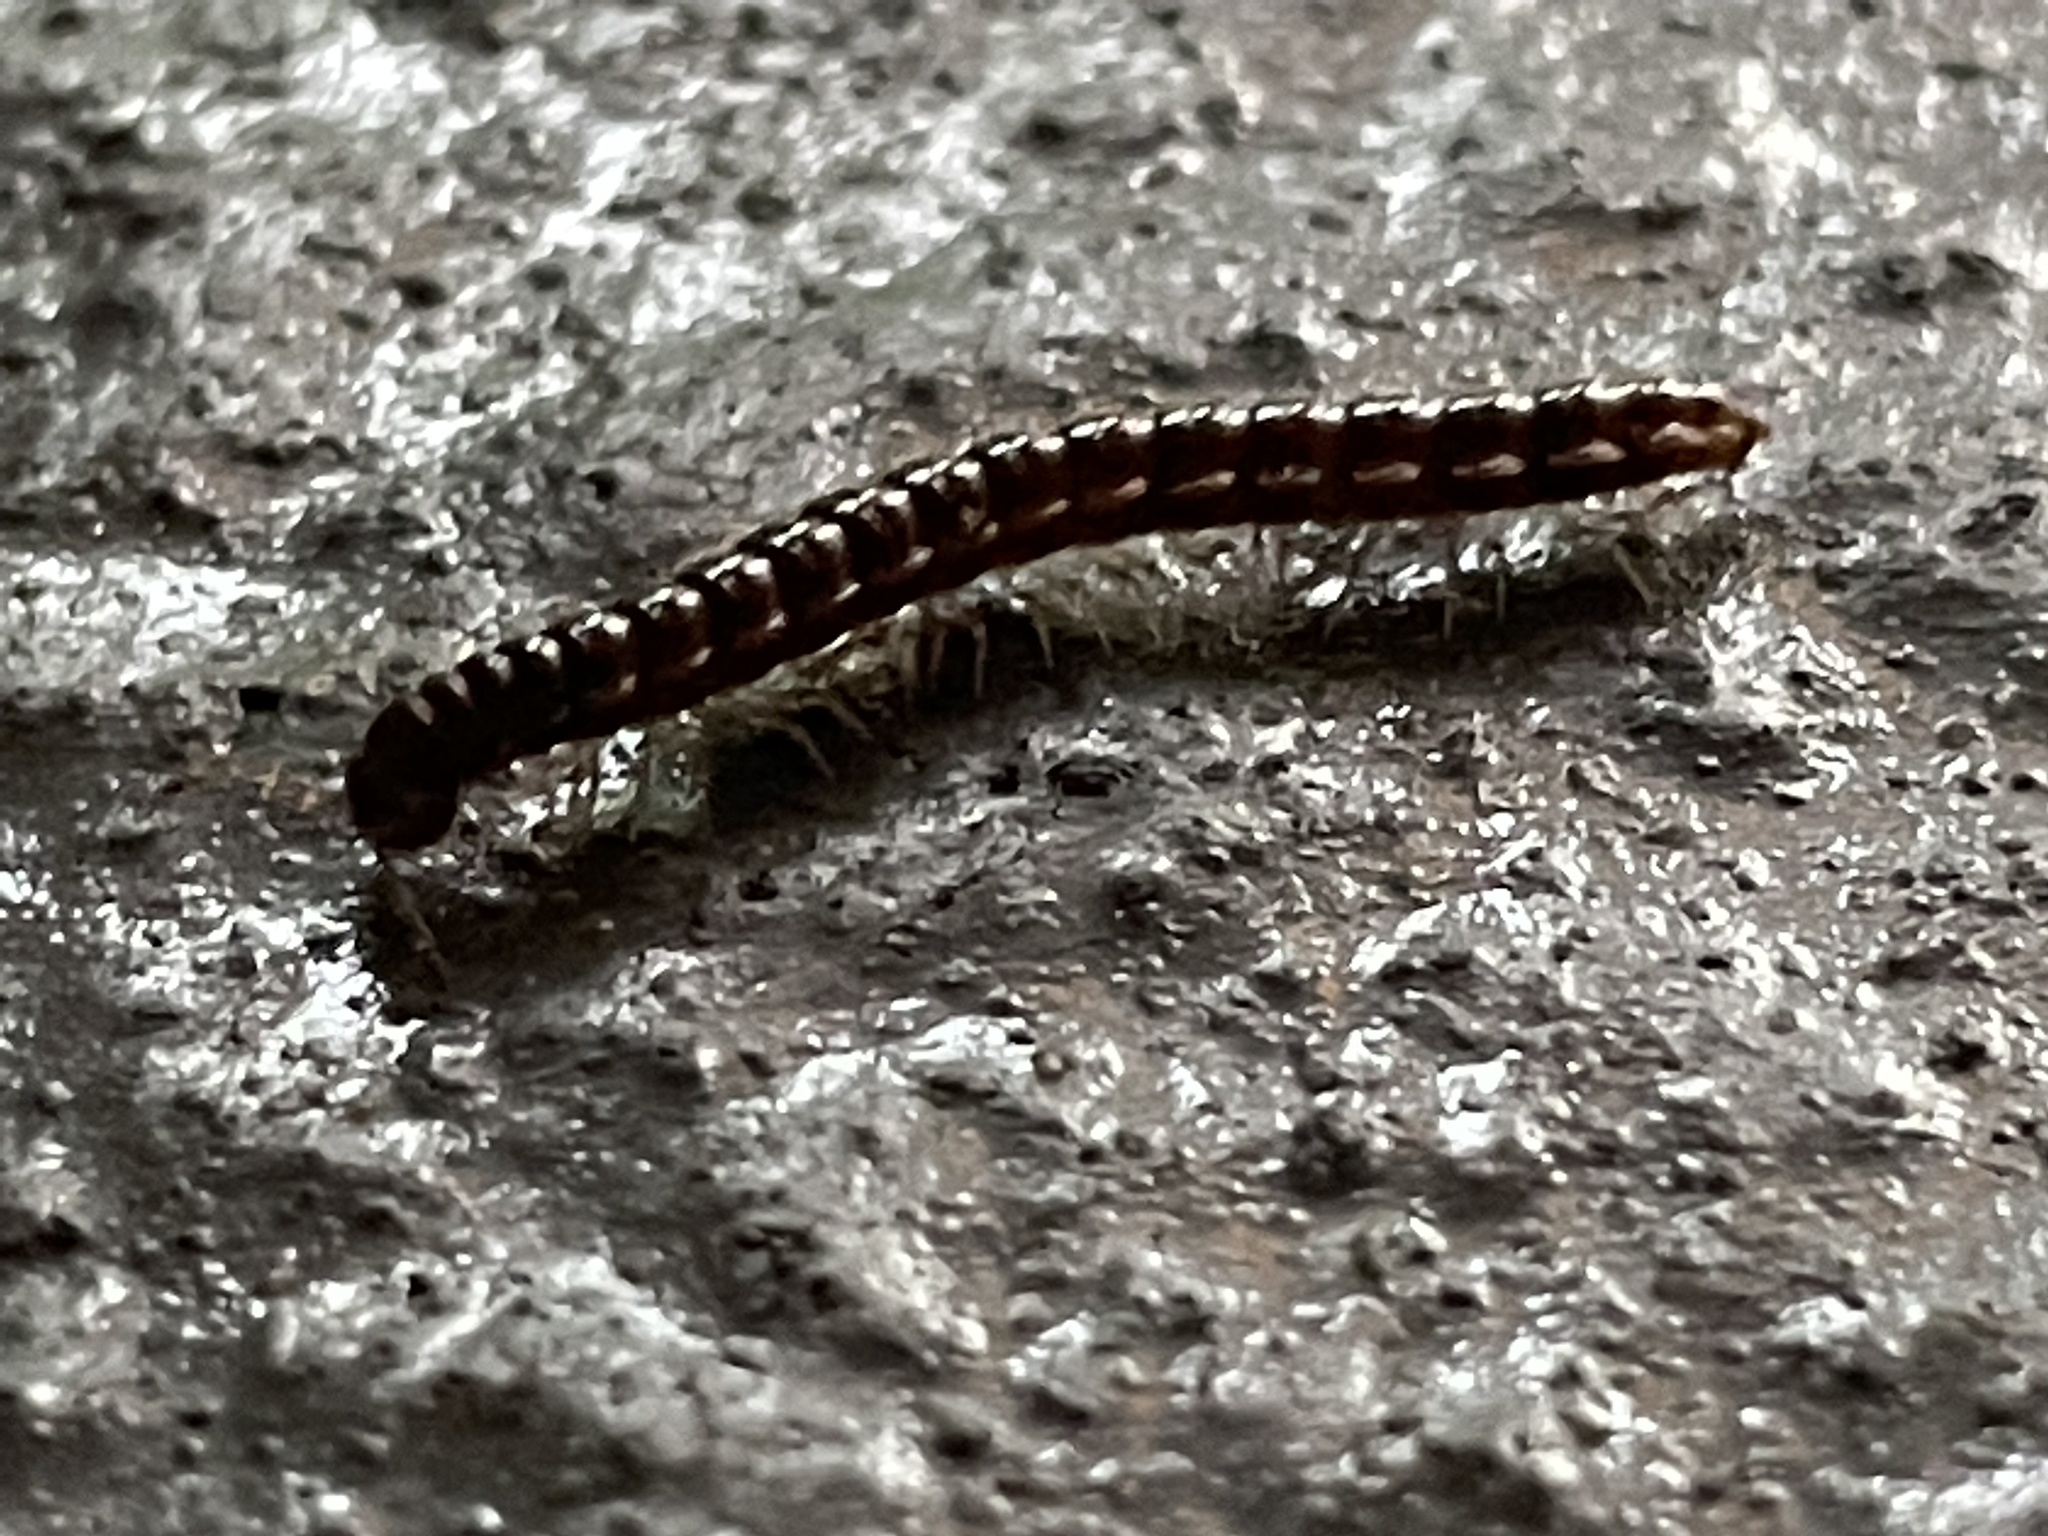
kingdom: Animalia
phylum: Arthropoda
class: Diplopoda
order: Polydesmida
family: Paradoxosomatidae
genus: Oxidus
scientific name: Oxidus gracilis
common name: Greenhouse millipede
